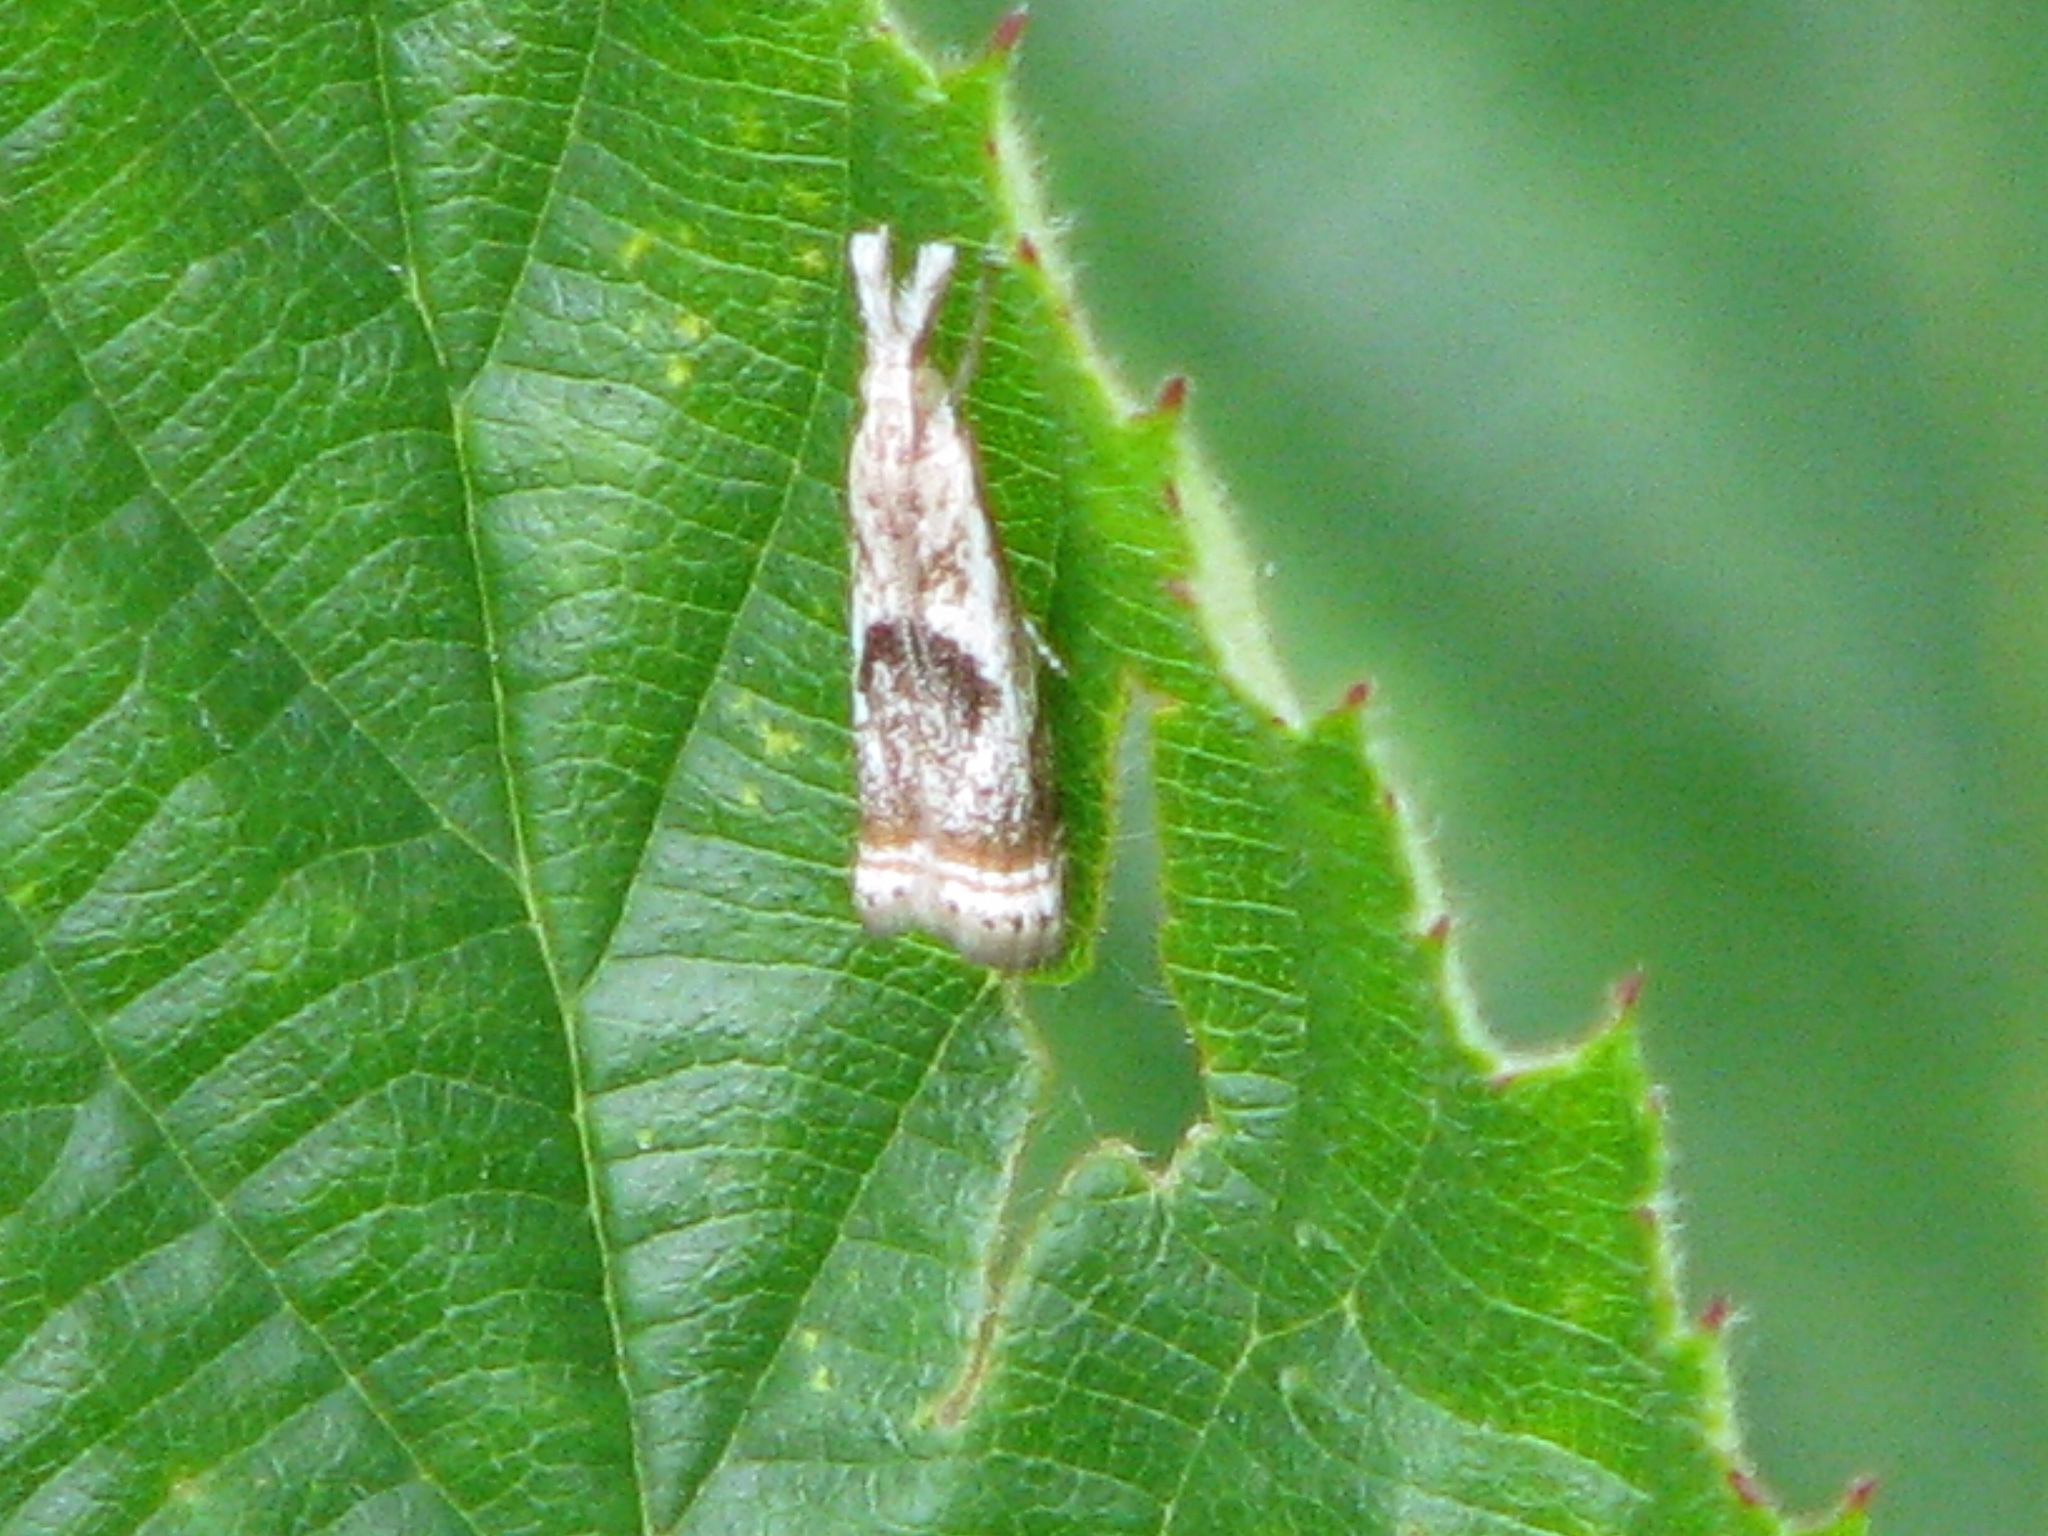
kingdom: Animalia
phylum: Arthropoda
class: Insecta
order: Lepidoptera
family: Crambidae
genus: Microcrambus
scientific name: Microcrambus elegans
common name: Elegant grass-veneer
